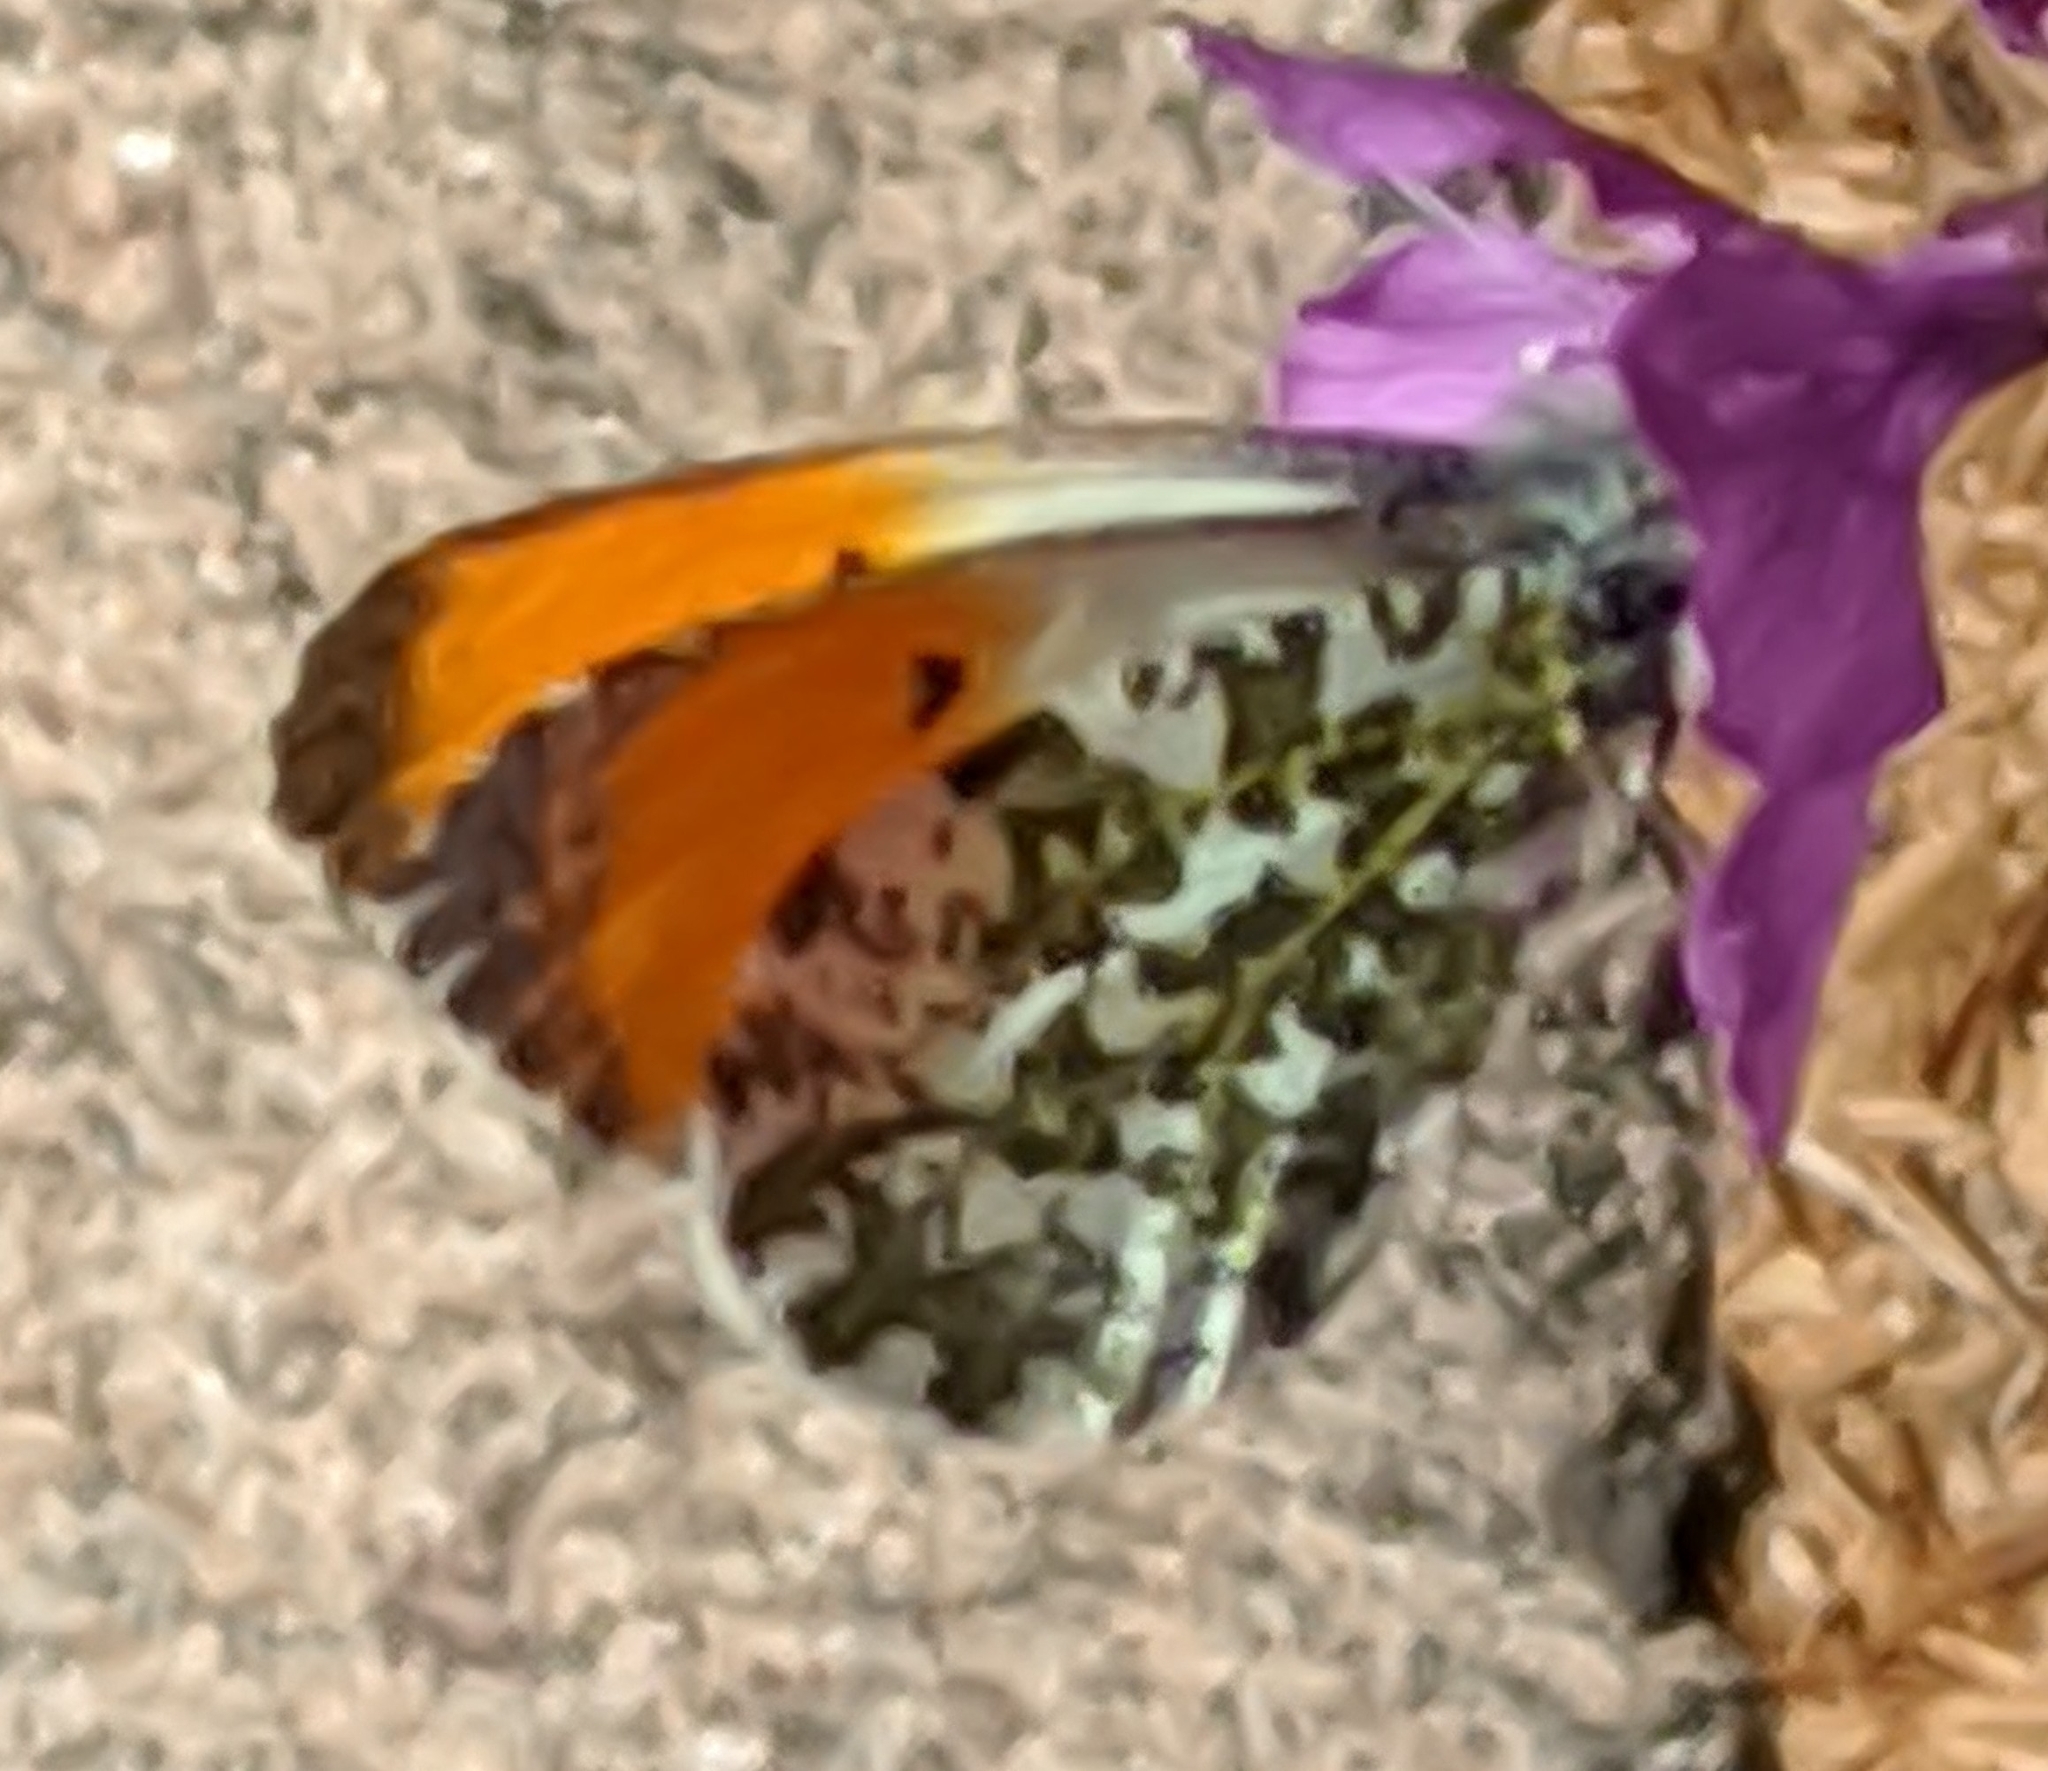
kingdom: Animalia
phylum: Arthropoda
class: Insecta
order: Lepidoptera
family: Pieridae
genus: Anthocharis
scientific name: Anthocharis cardamines
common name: Orange-tip
